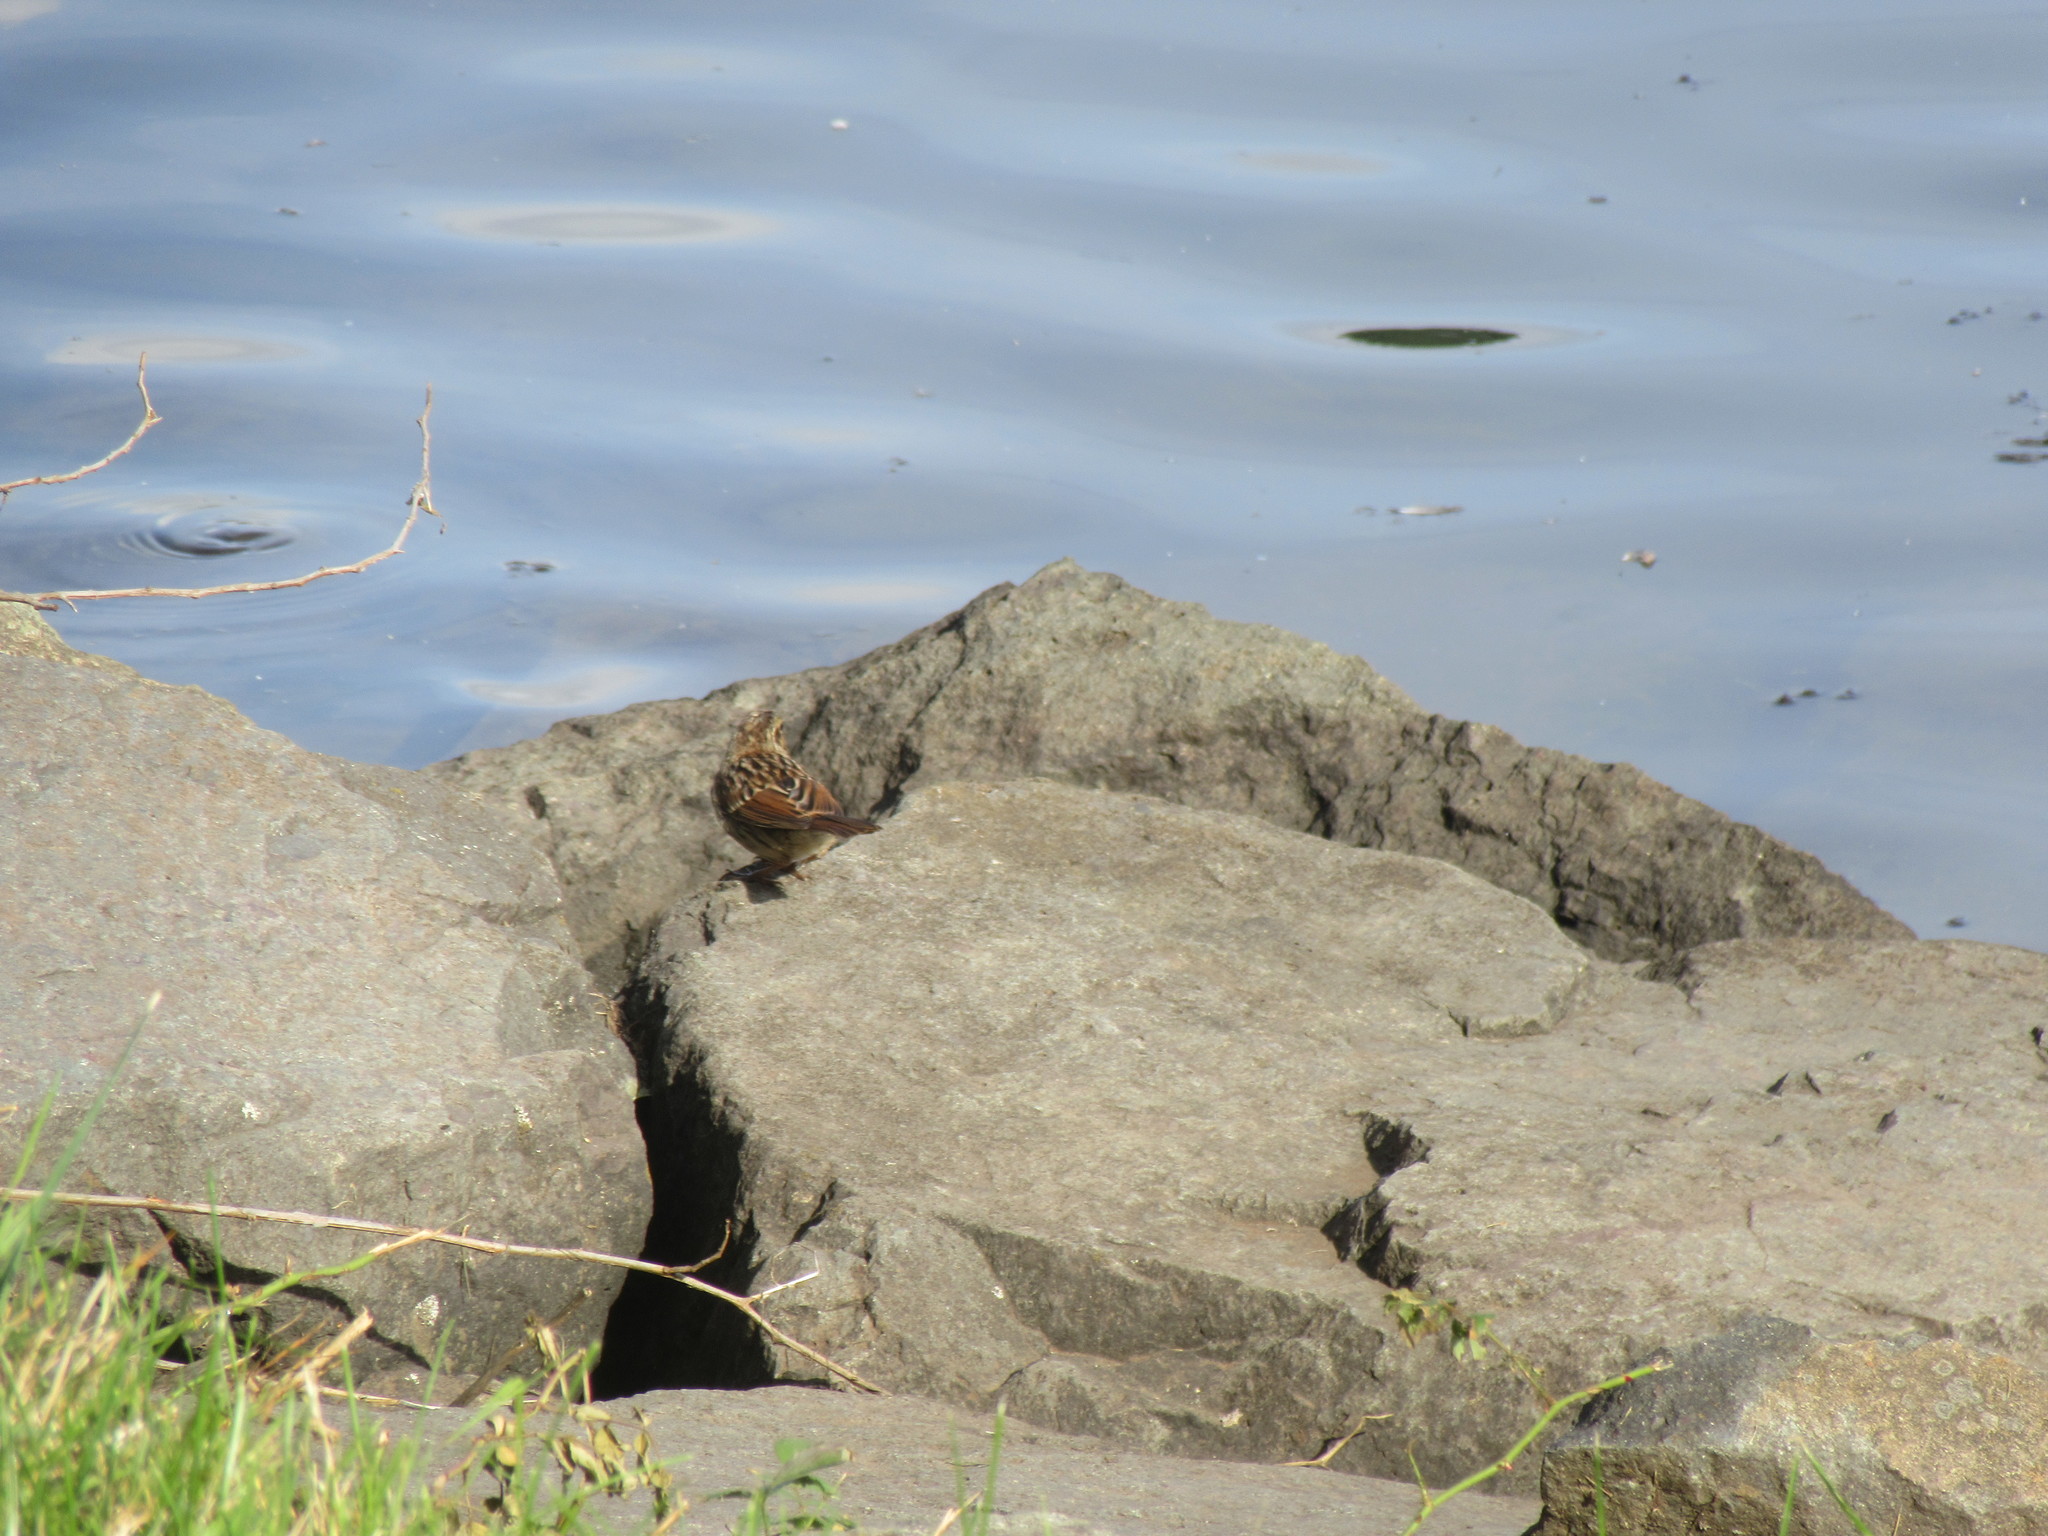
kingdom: Animalia
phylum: Chordata
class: Aves
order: Passeriformes
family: Passerellidae
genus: Melospiza
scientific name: Melospiza melodia
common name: Song sparrow
